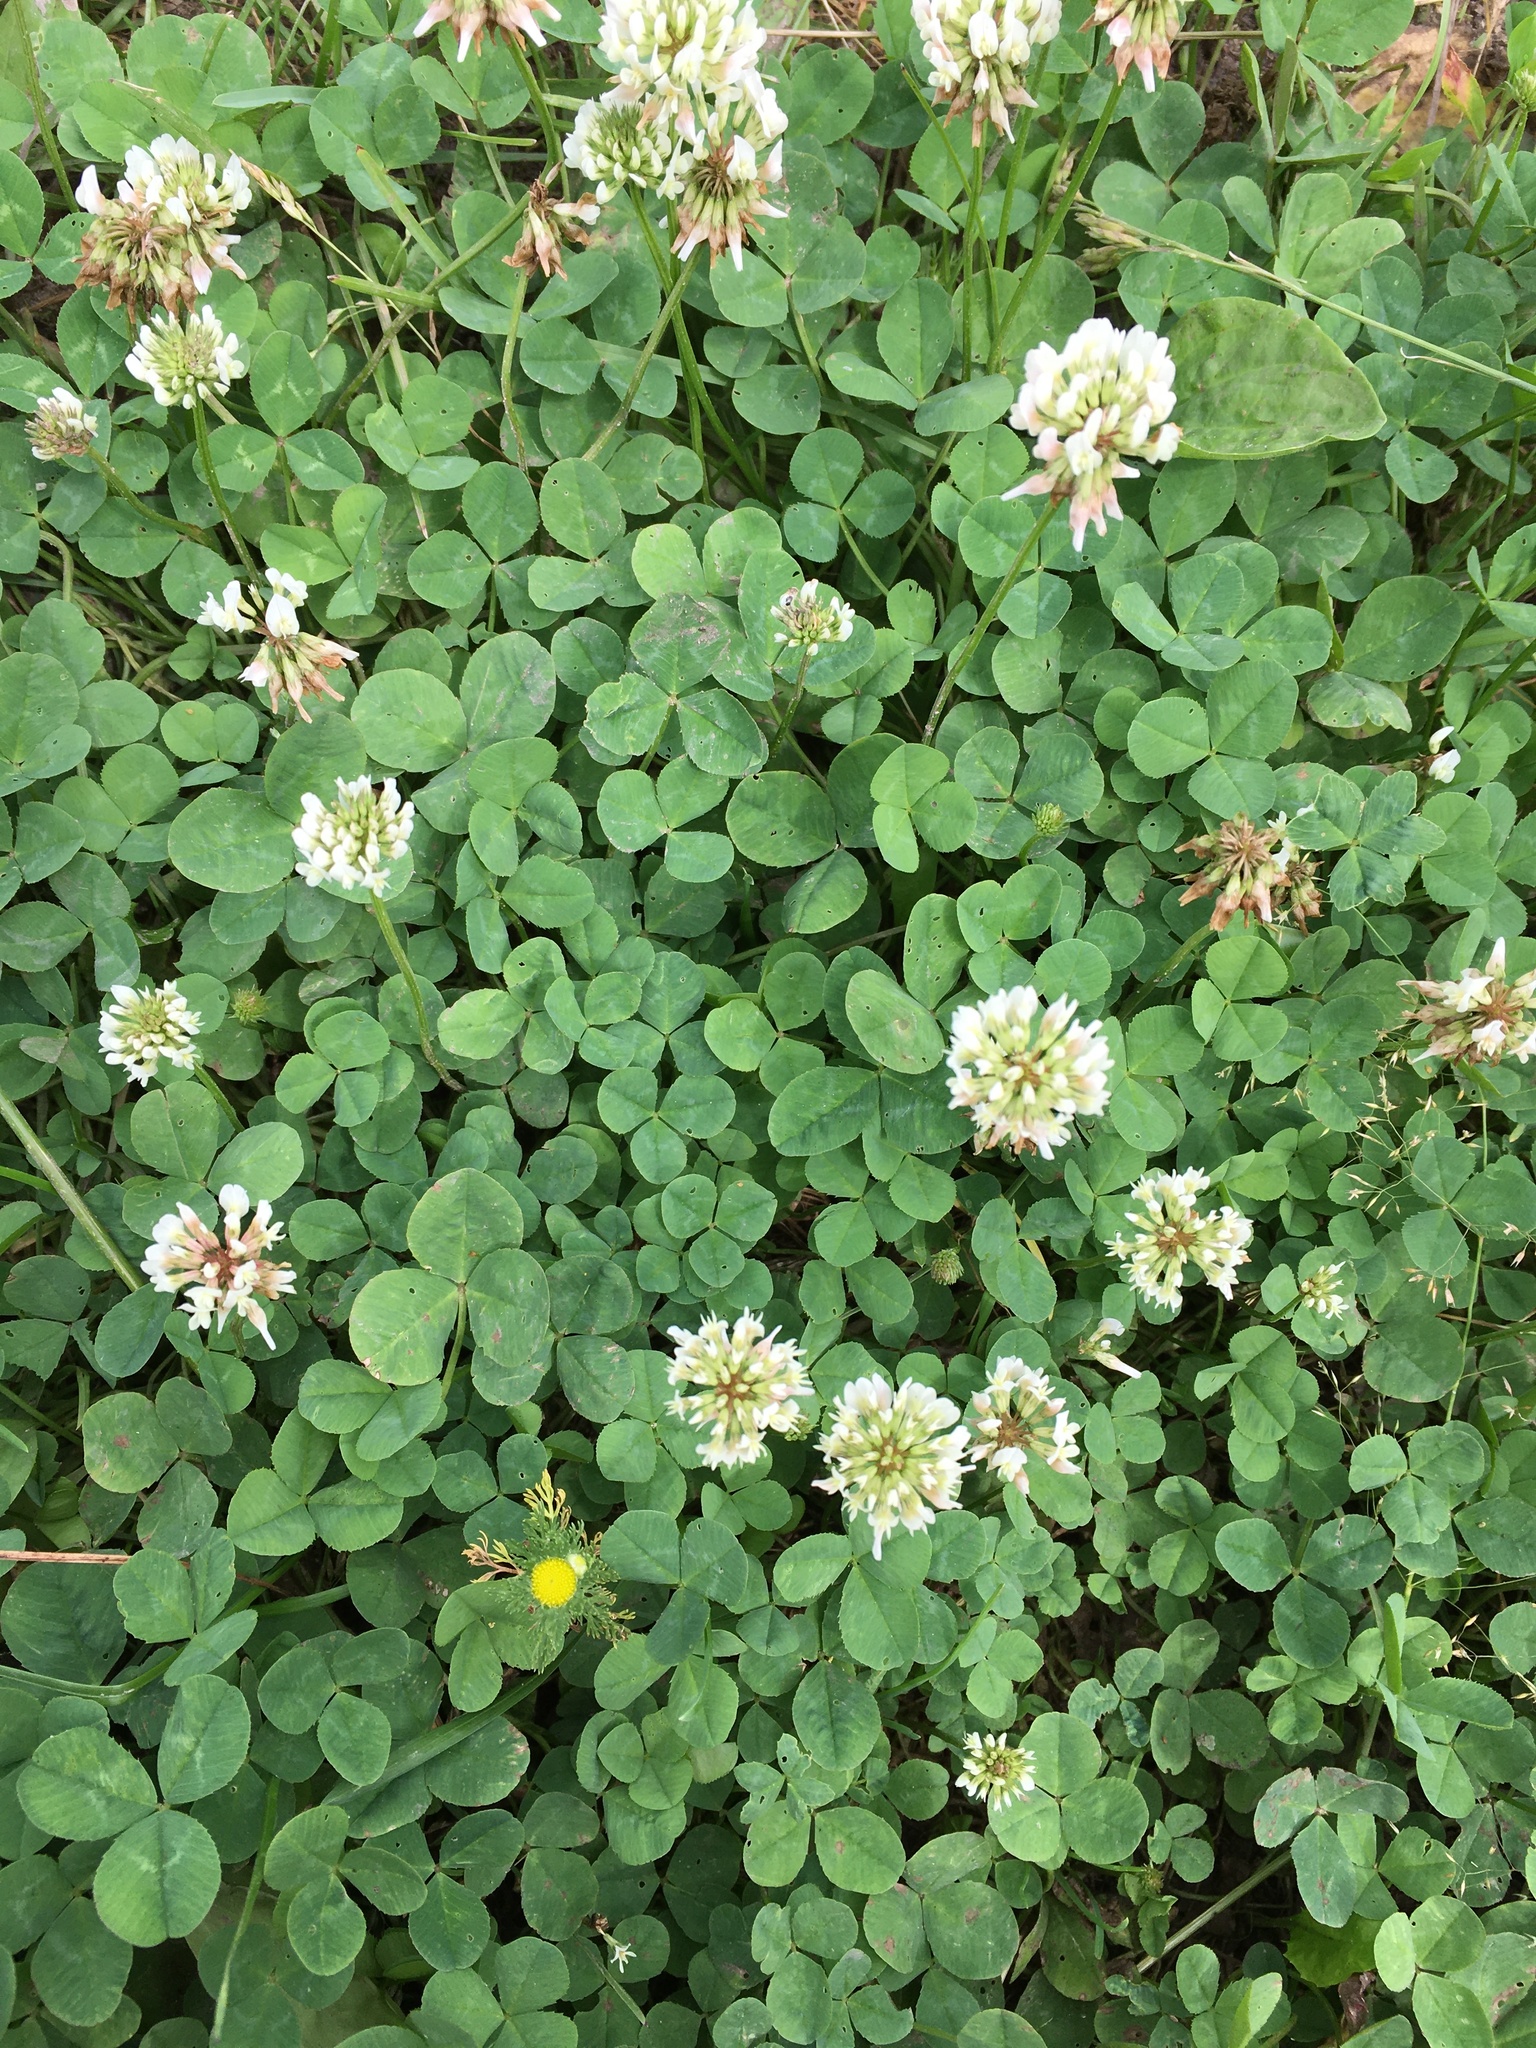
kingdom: Plantae
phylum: Tracheophyta
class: Magnoliopsida
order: Fabales
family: Fabaceae
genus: Trifolium
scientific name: Trifolium repens
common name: White clover
